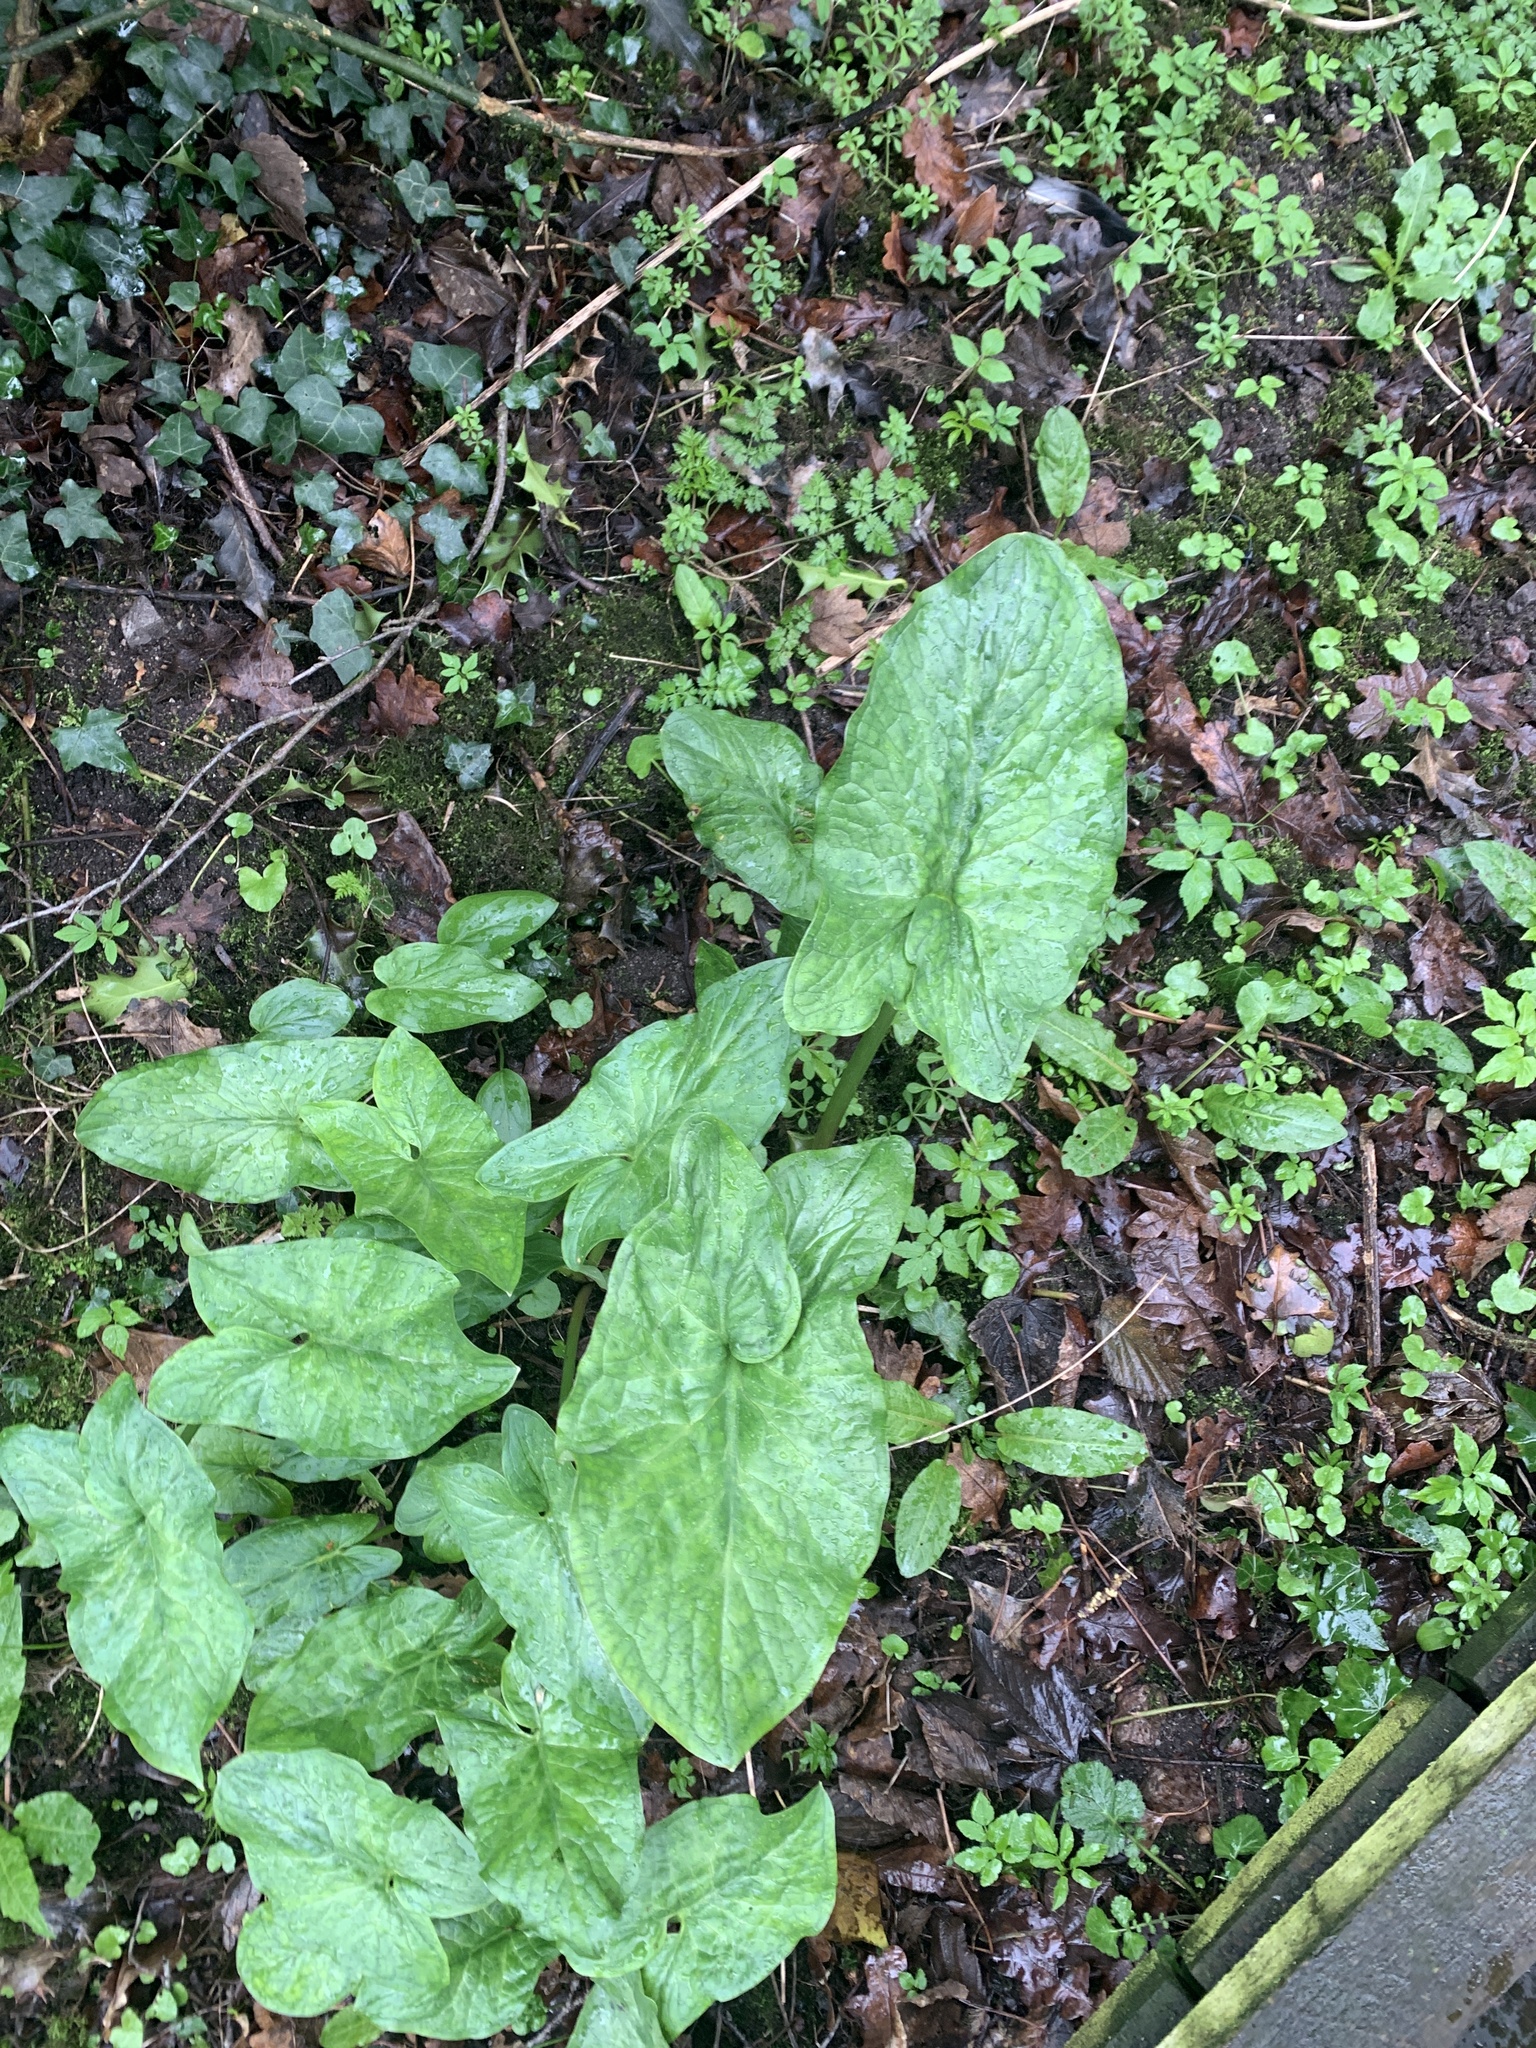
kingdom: Plantae
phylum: Tracheophyta
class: Liliopsida
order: Alismatales
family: Araceae
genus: Arum
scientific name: Arum maculatum
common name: Lords-and-ladies
